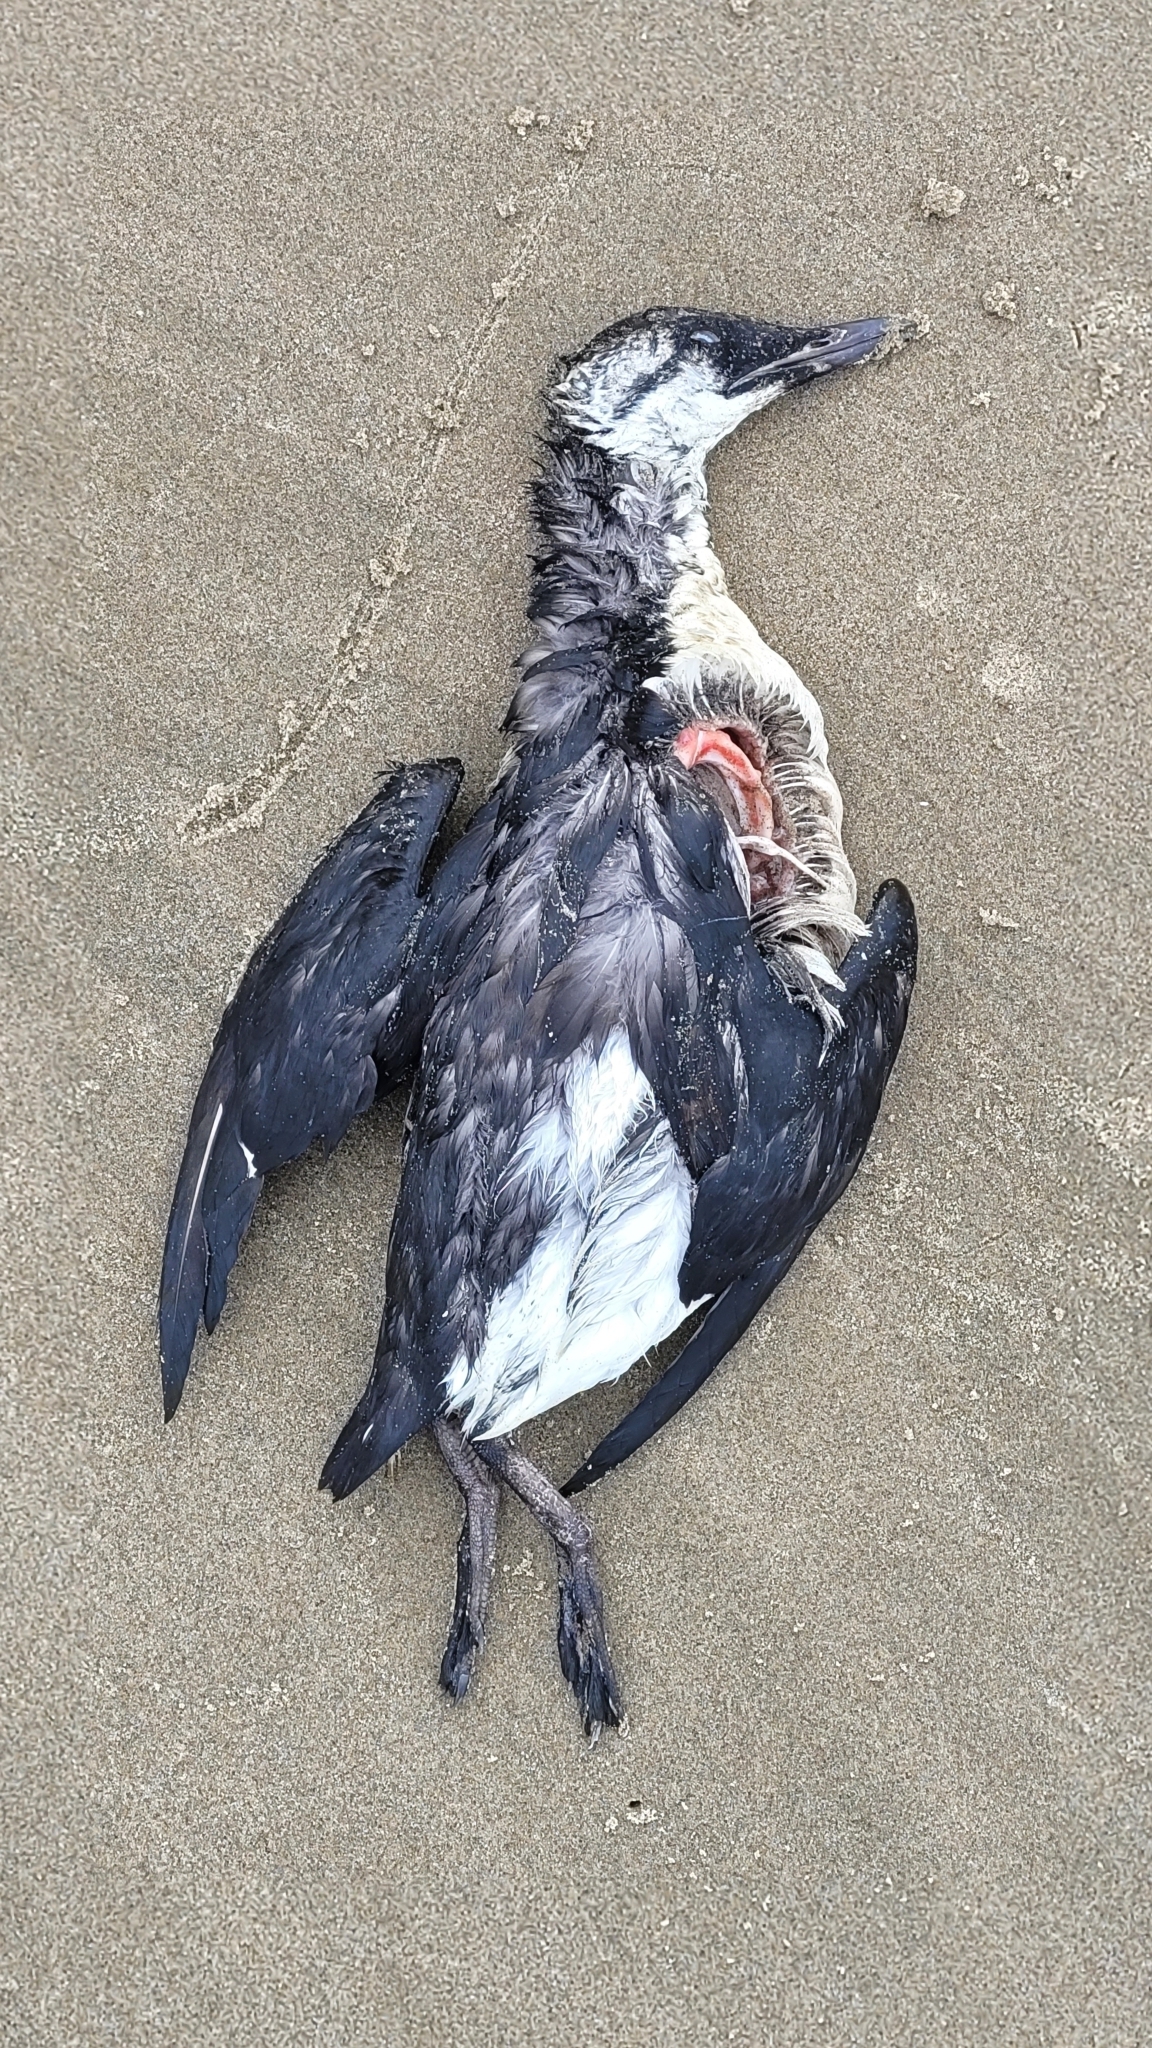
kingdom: Animalia
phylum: Chordata
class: Aves
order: Charadriiformes
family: Alcidae
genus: Uria
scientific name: Uria aalge
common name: Common murre
